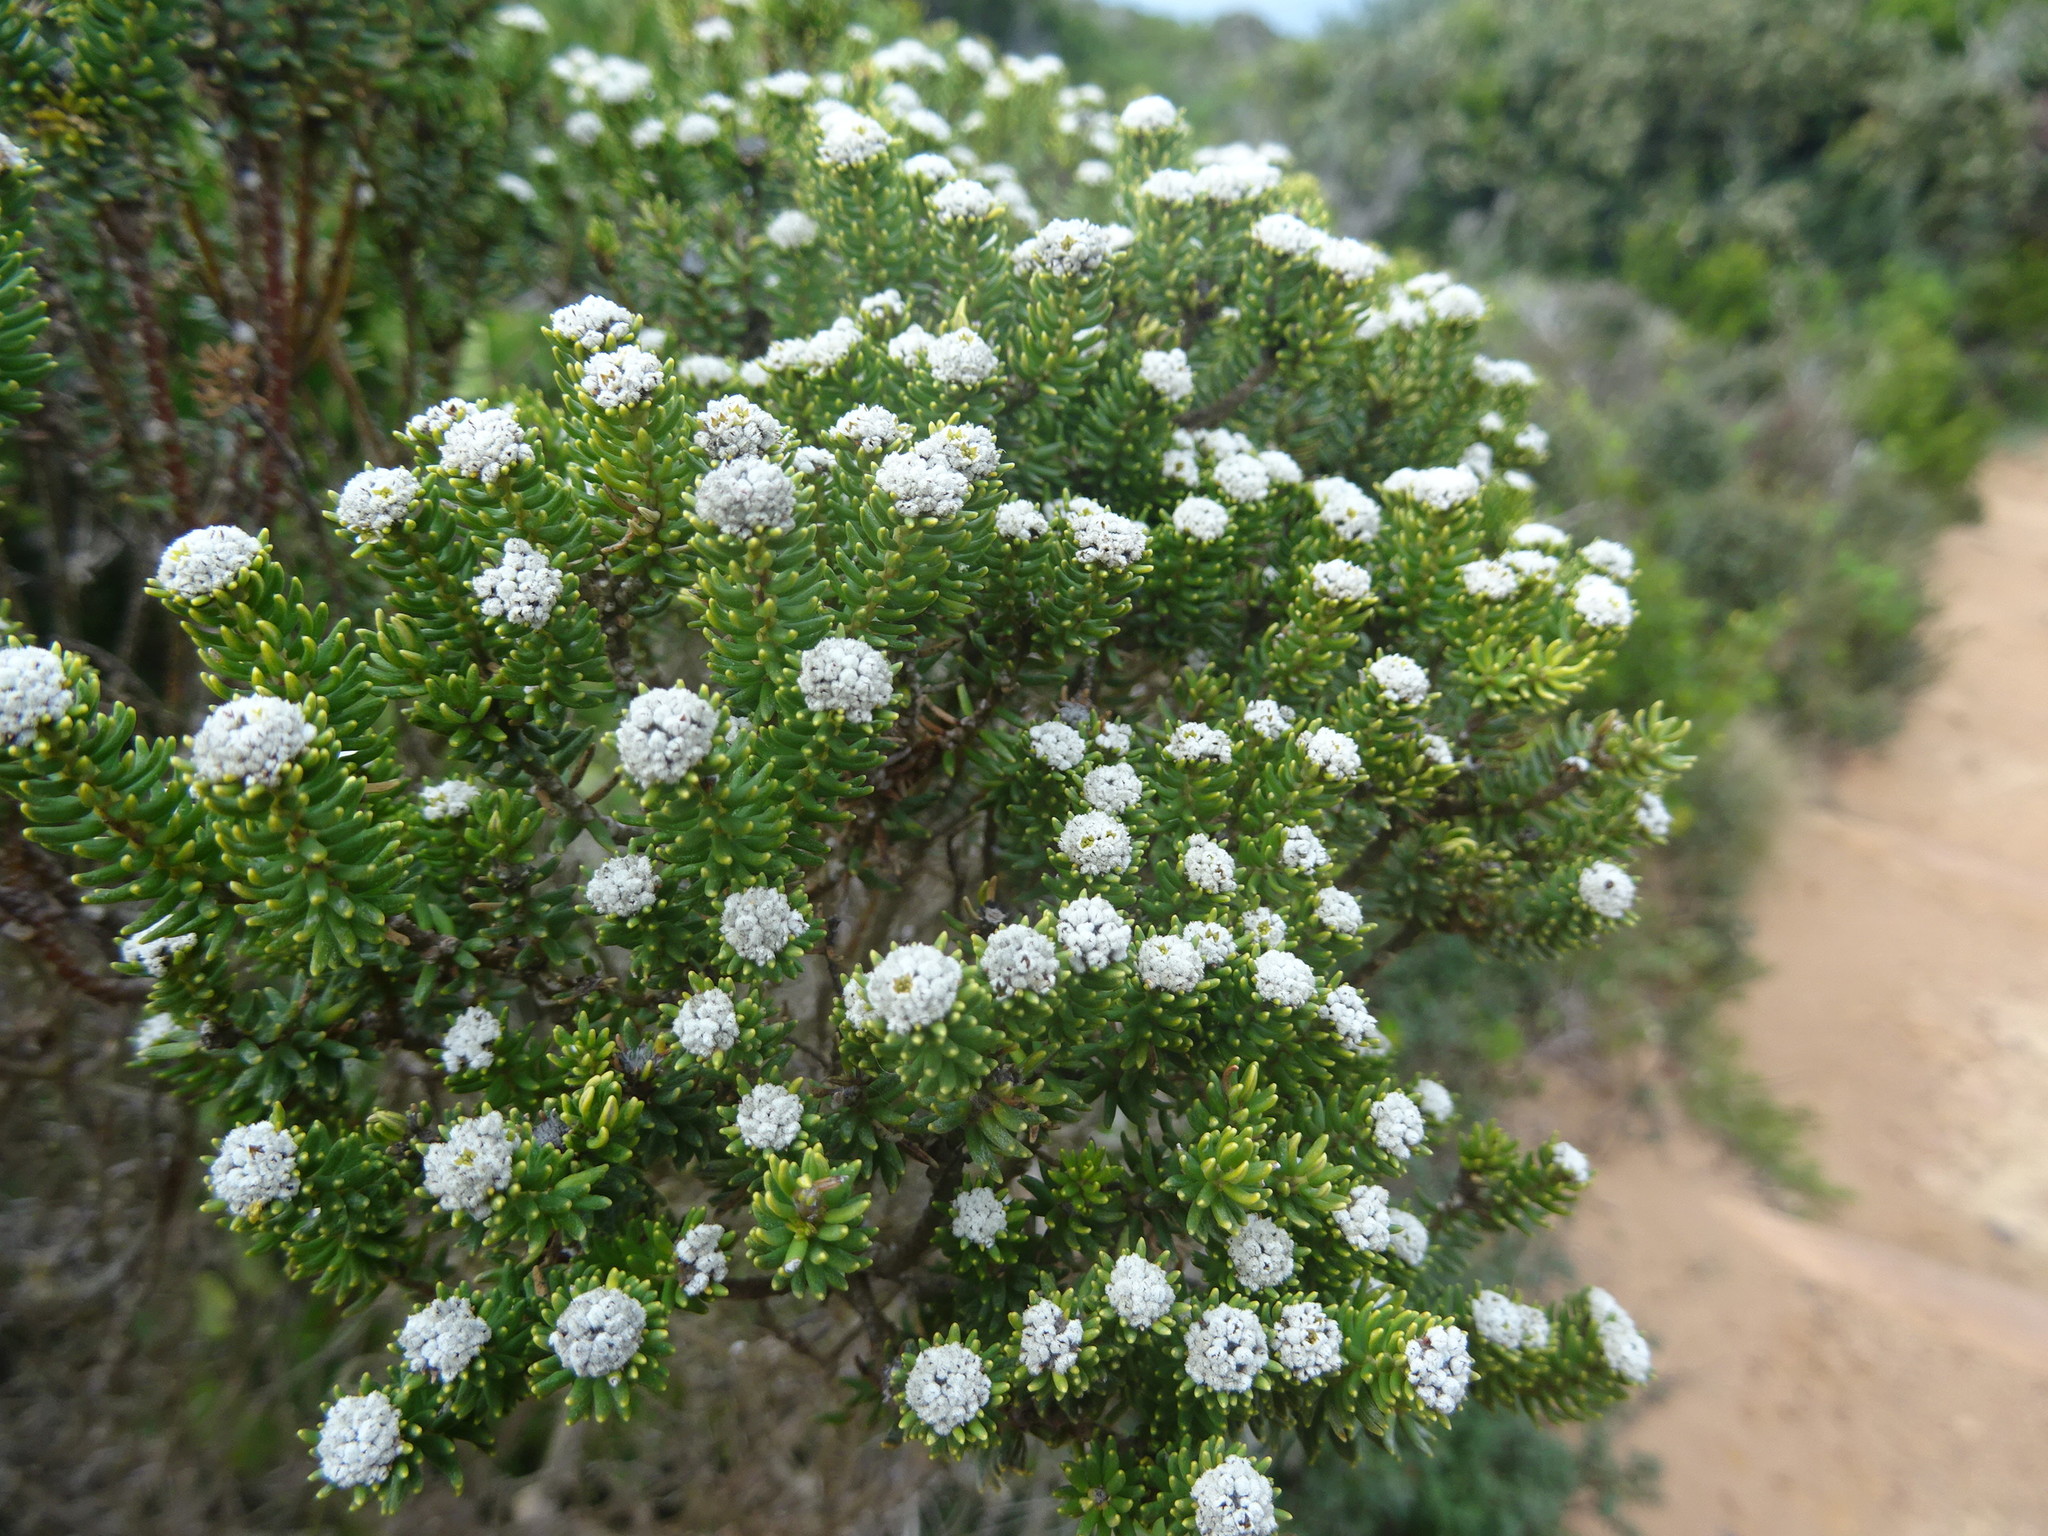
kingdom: Plantae
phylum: Tracheophyta
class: Magnoliopsida
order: Rosales
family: Rhamnaceae
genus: Phylica
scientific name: Phylica ericoides
